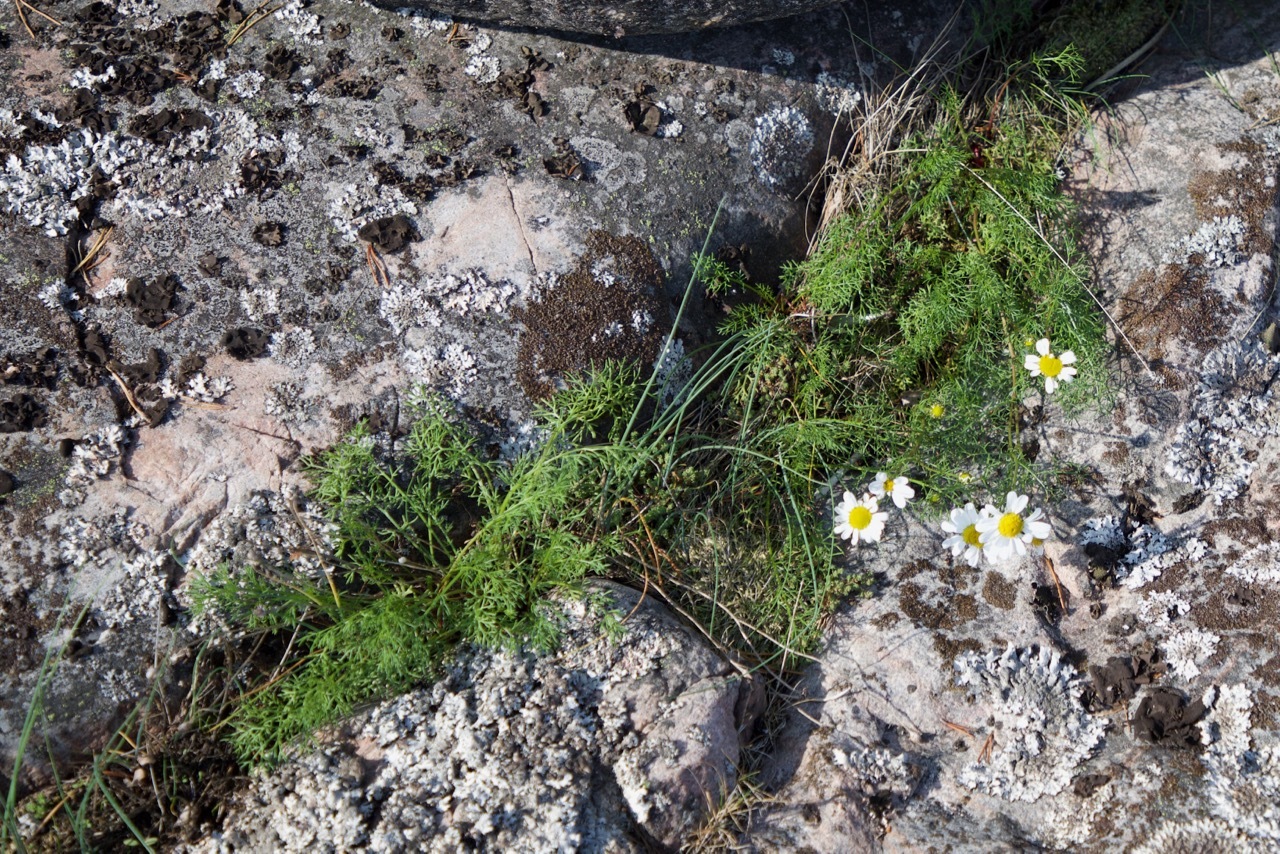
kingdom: Plantae
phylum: Tracheophyta
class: Magnoliopsida
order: Asterales
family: Asteraceae
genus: Tripleurospermum
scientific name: Tripleurospermum maritimum
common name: Sea mayweed
